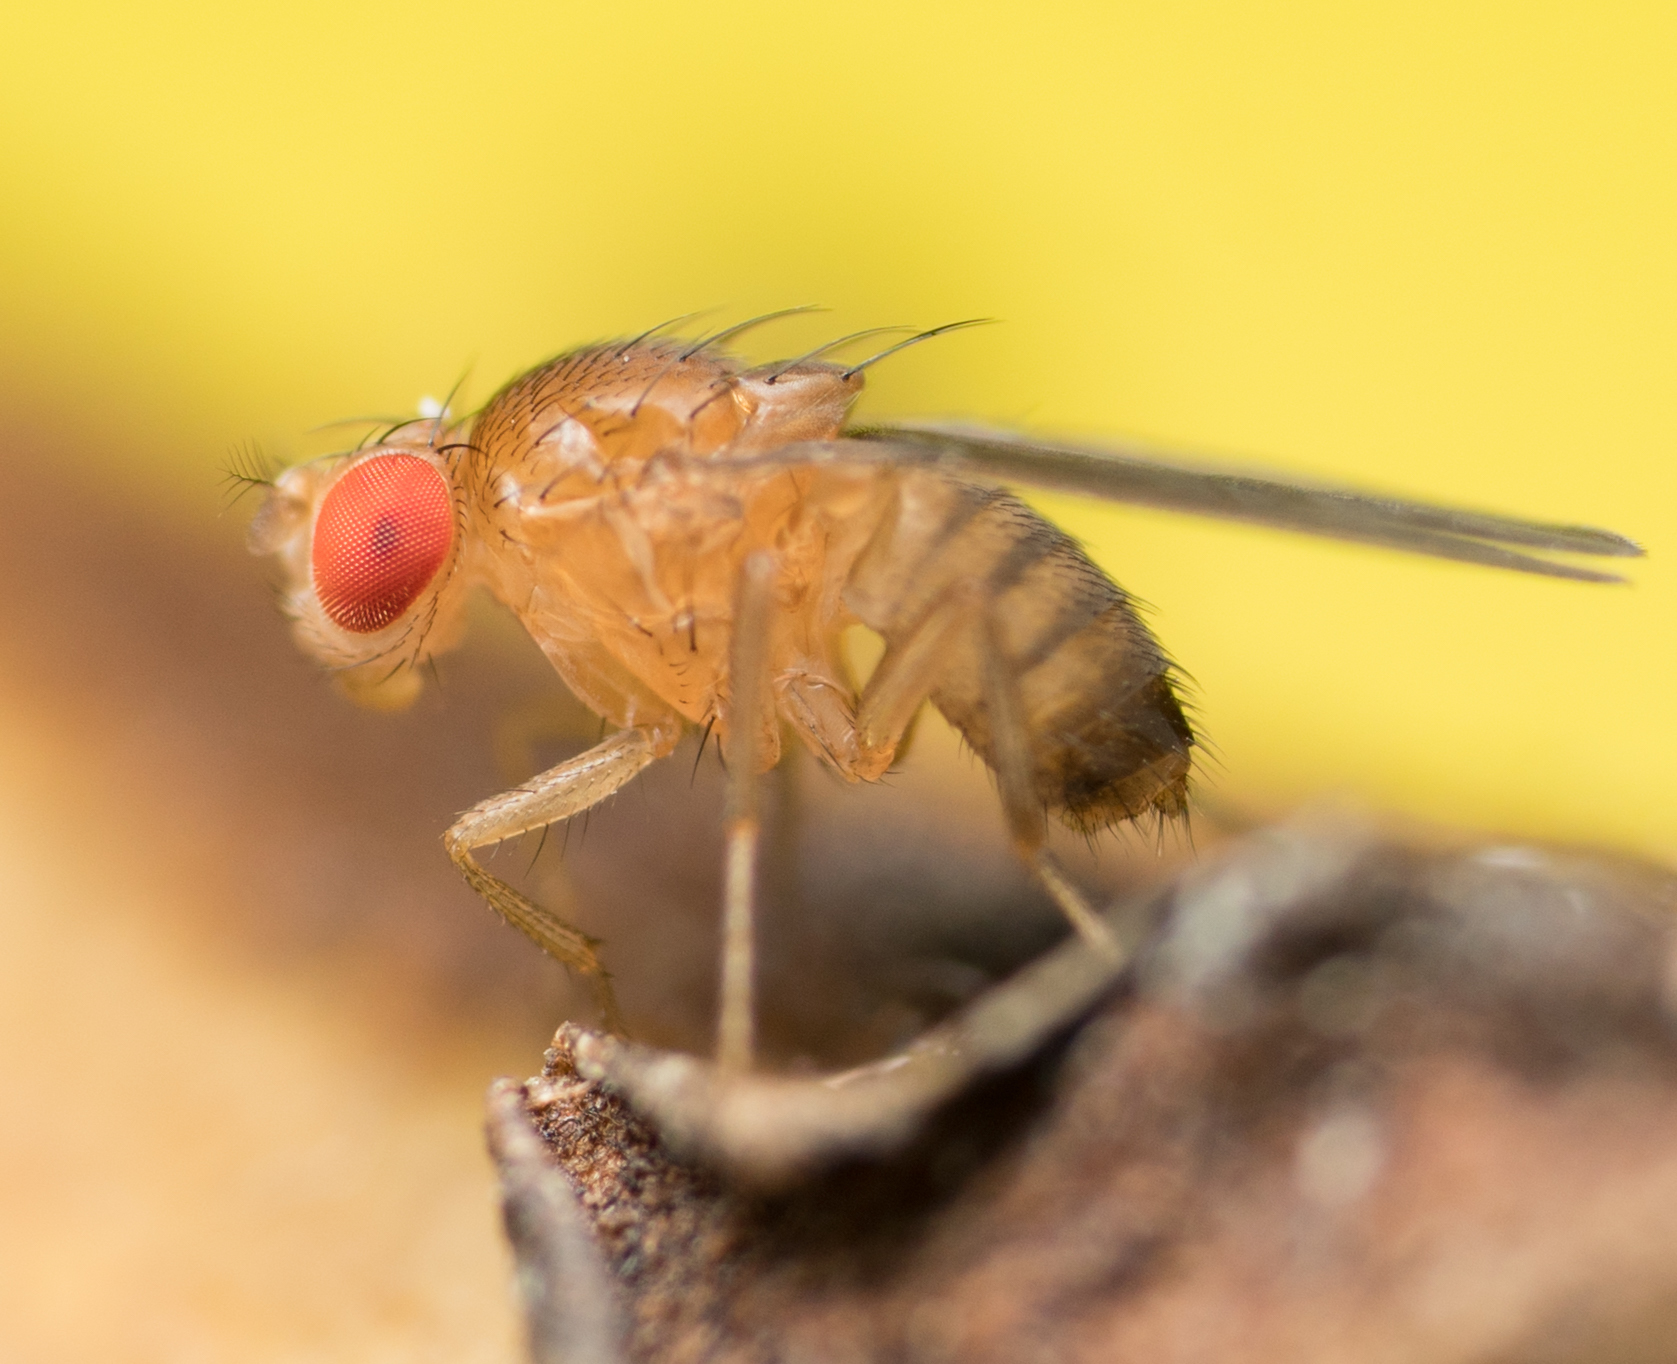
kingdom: Animalia
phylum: Arthropoda
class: Insecta
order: Diptera
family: Drosophilidae
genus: Drosophila
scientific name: Drosophila melanogaster
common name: Pomace fly
